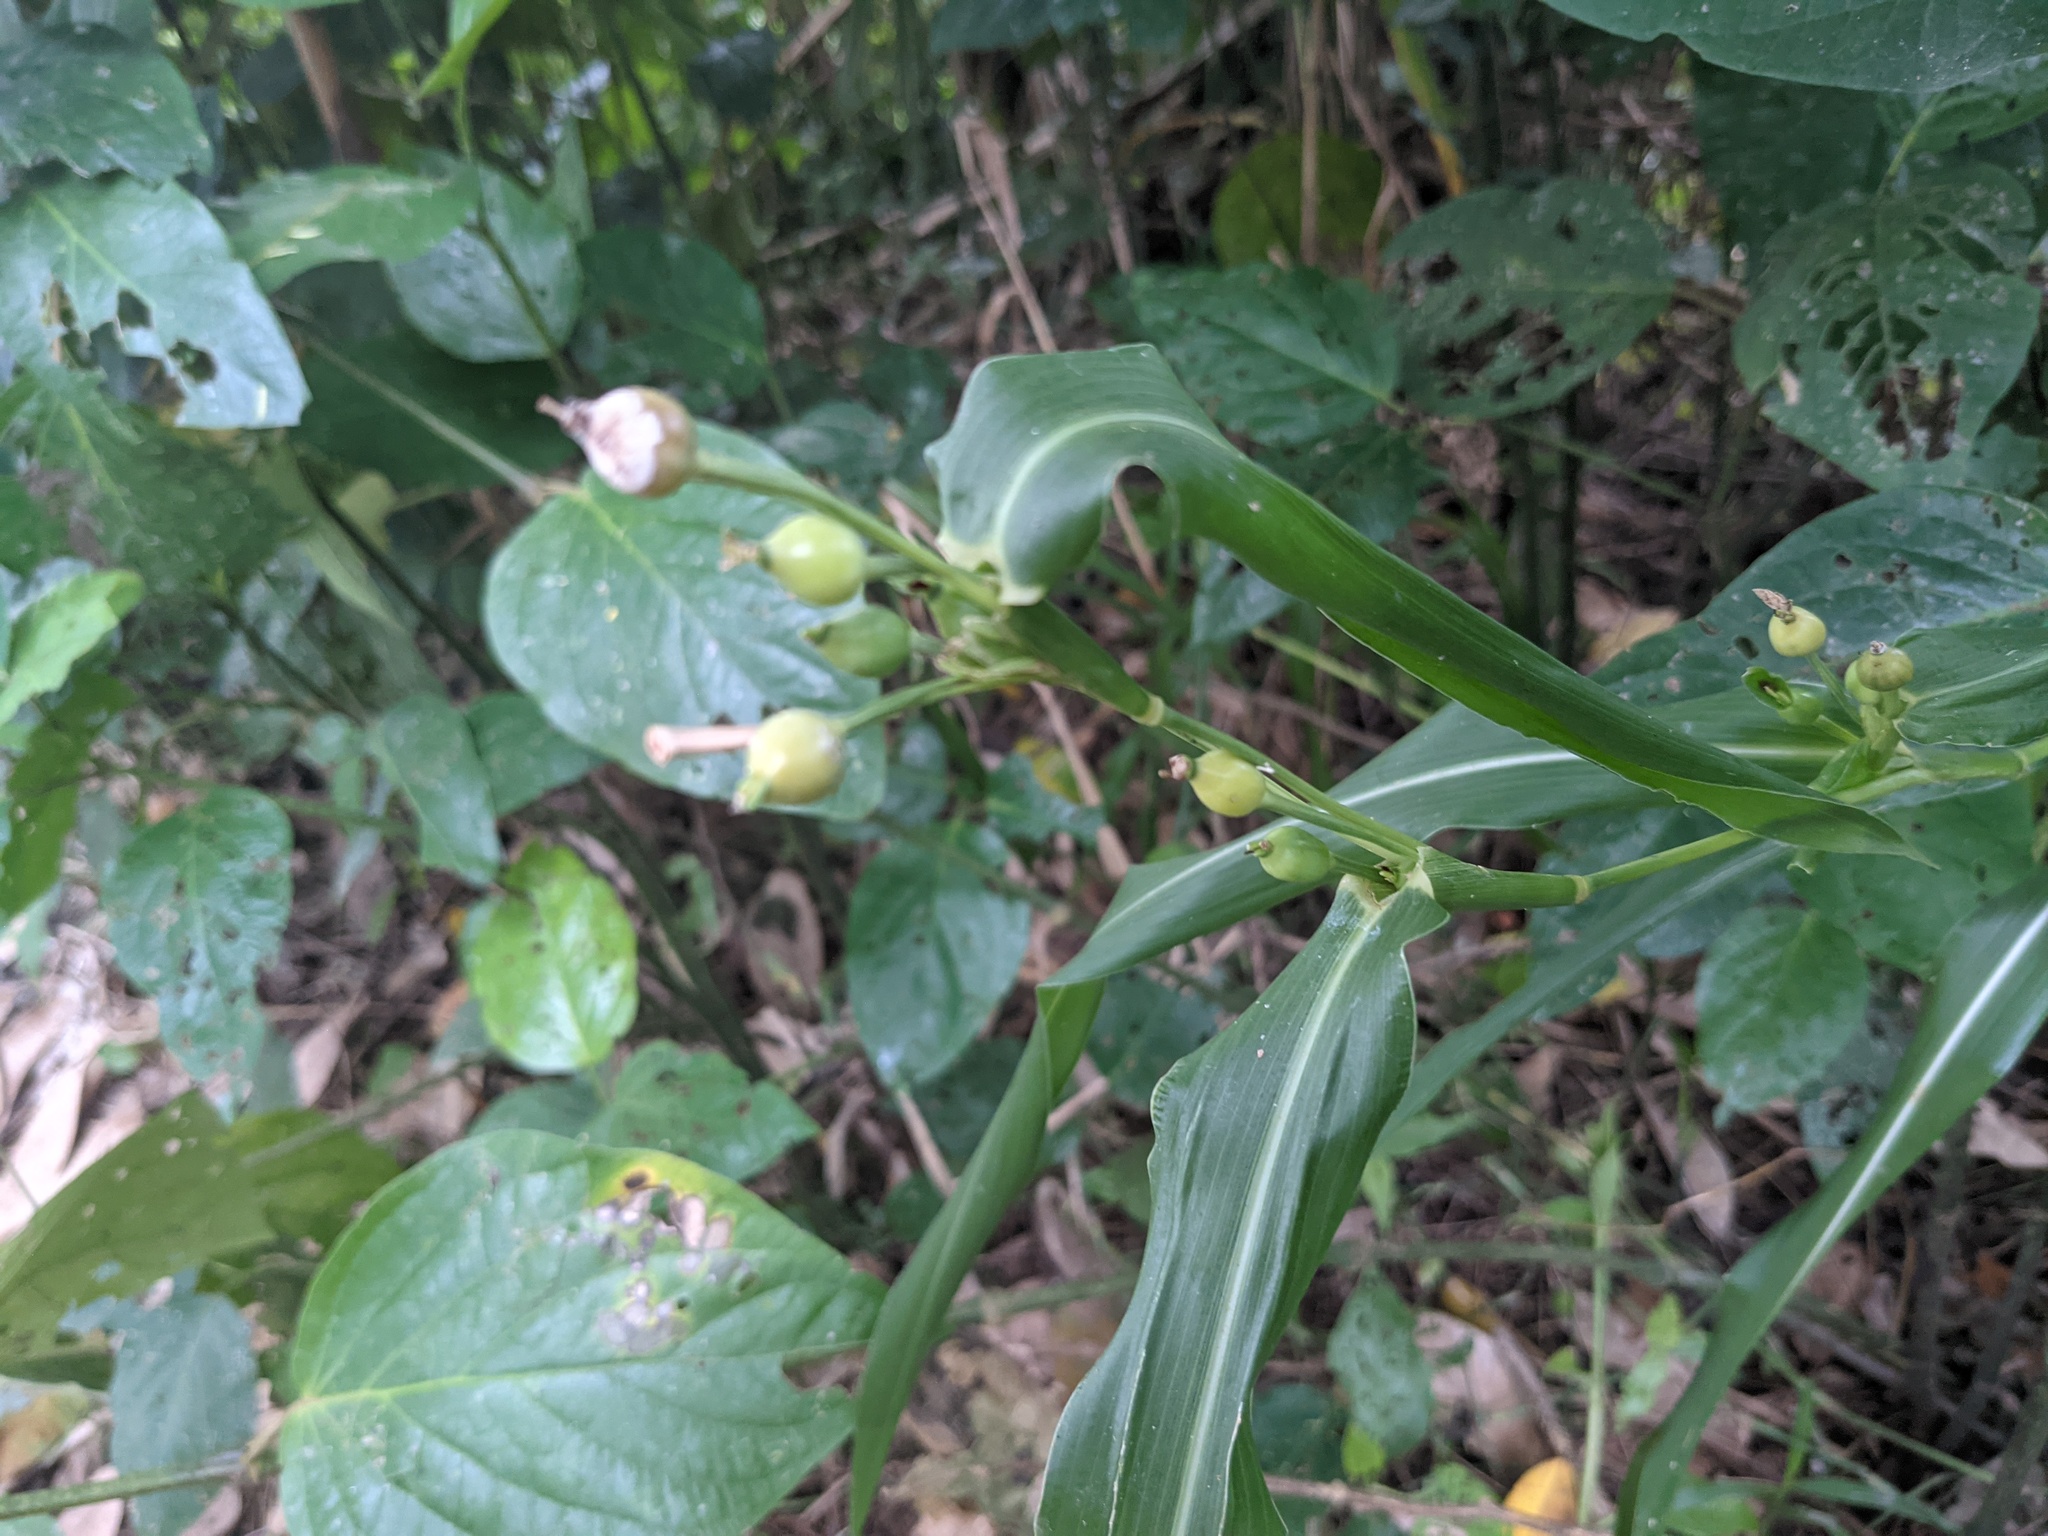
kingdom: Plantae
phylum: Tracheophyta
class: Liliopsida
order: Poales
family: Poaceae
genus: Coix
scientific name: Coix lacryma-jobi
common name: Job's tears
